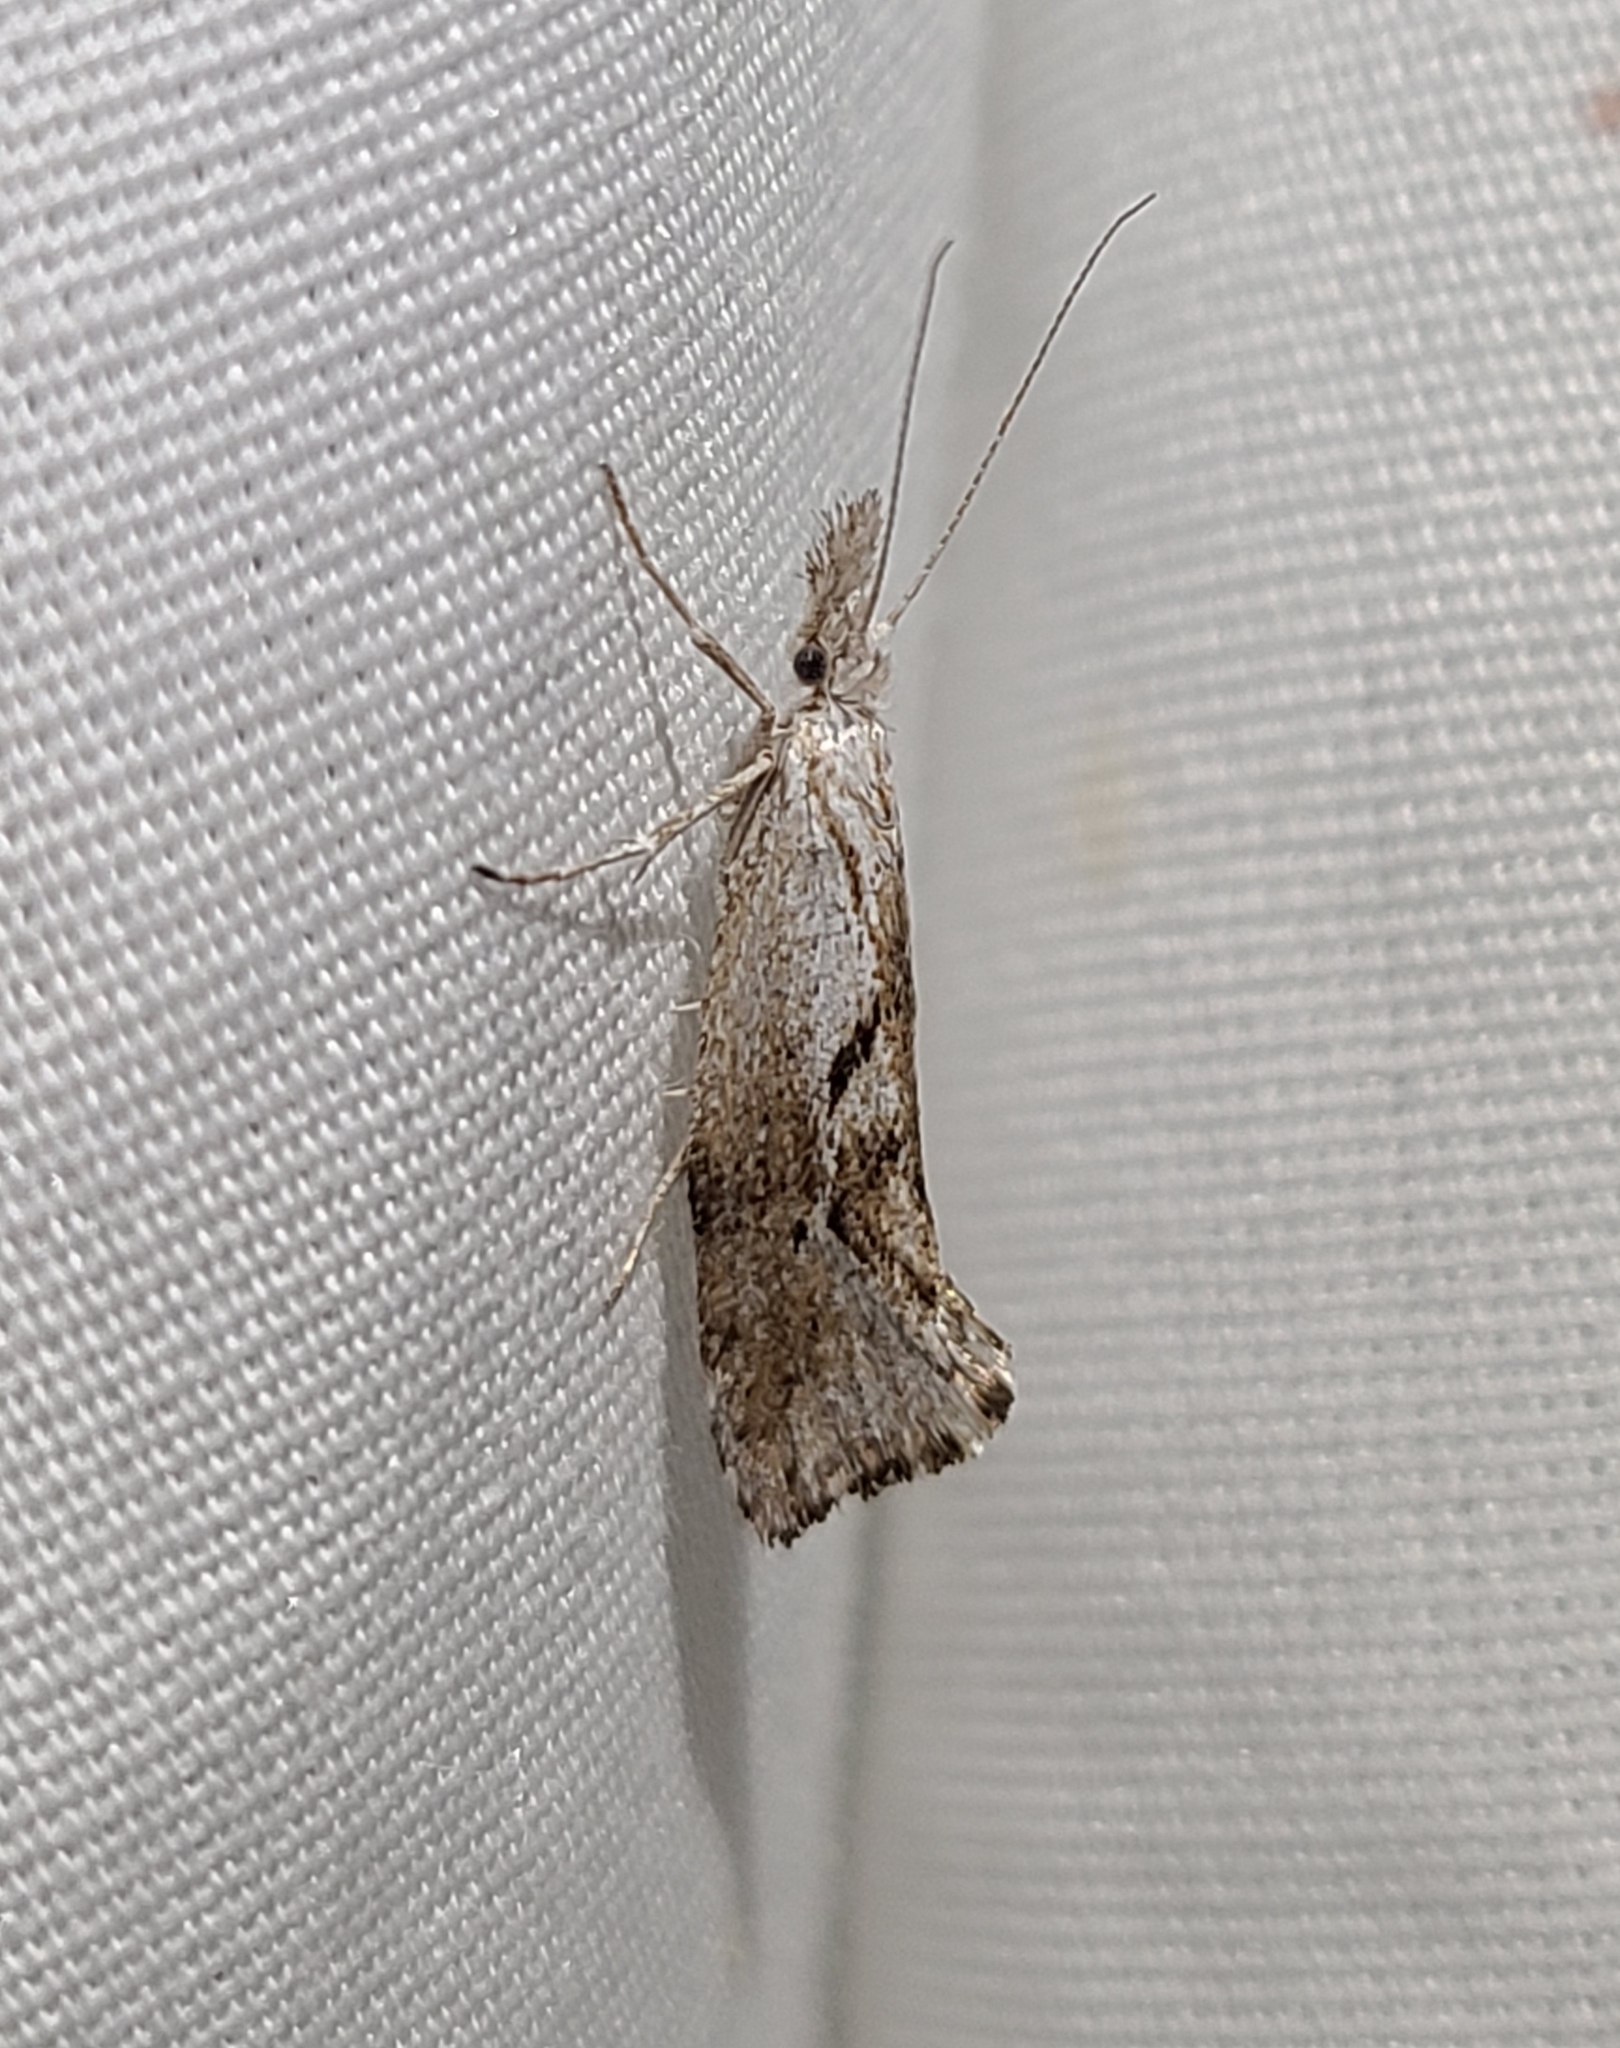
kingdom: Animalia
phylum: Arthropoda
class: Insecta
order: Lepidoptera
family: Ypsolophidae
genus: Euceratia
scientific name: Euceratia securella
